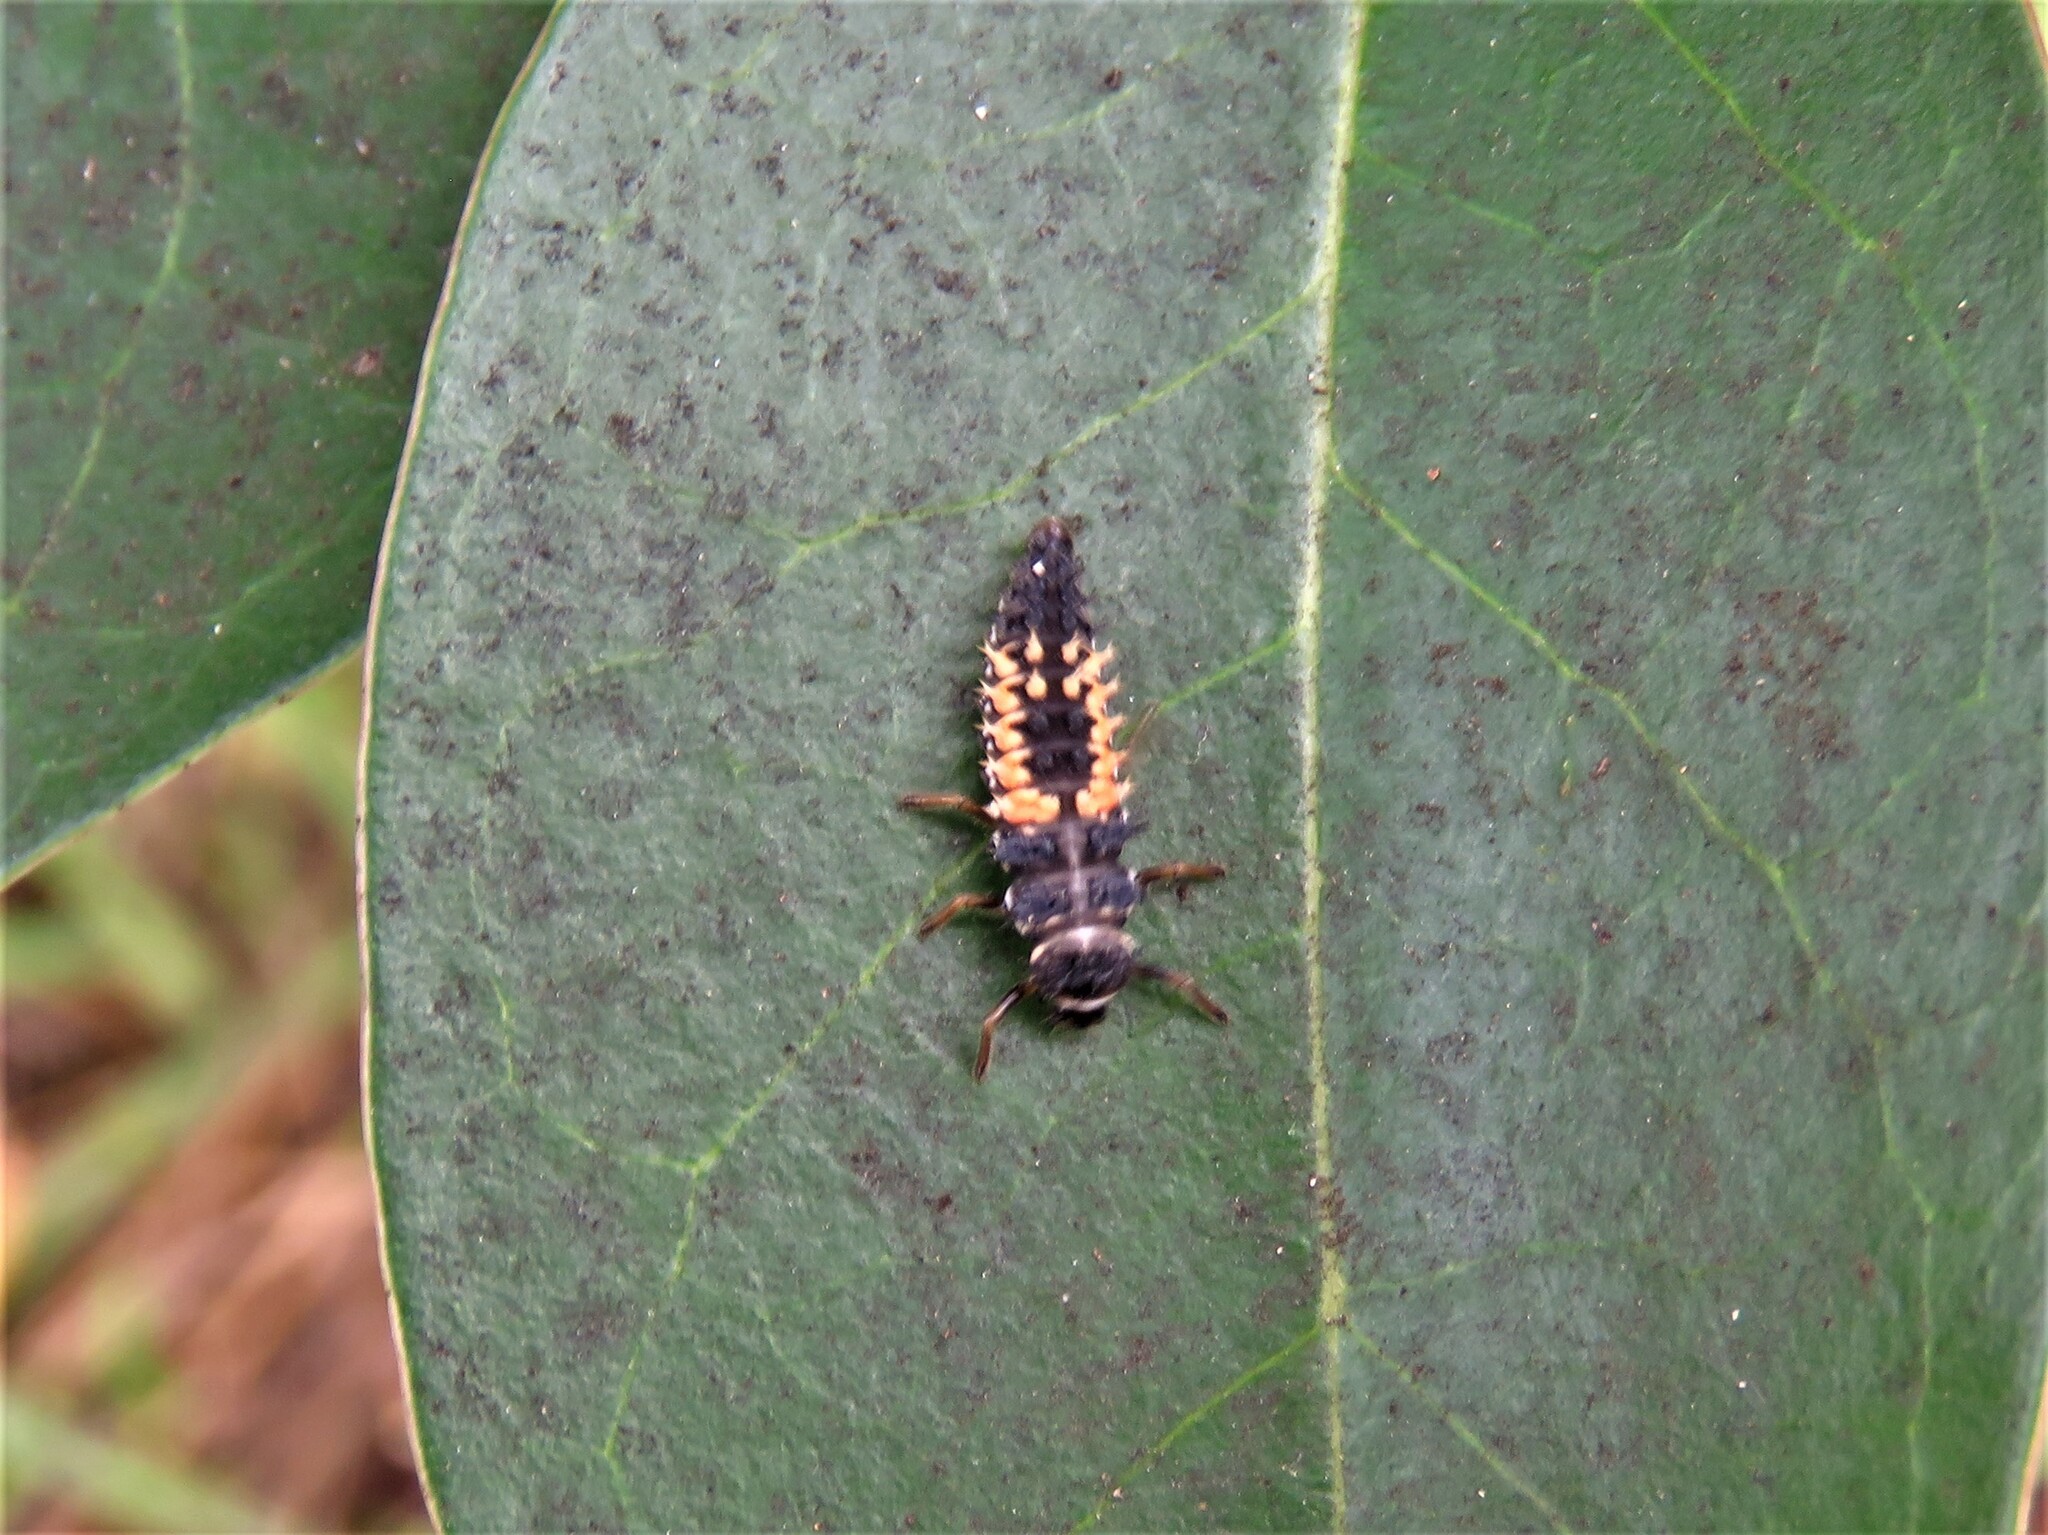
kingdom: Animalia
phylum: Arthropoda
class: Insecta
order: Coleoptera
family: Coccinellidae
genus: Harmonia
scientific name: Harmonia axyridis
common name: Harlequin ladybird
